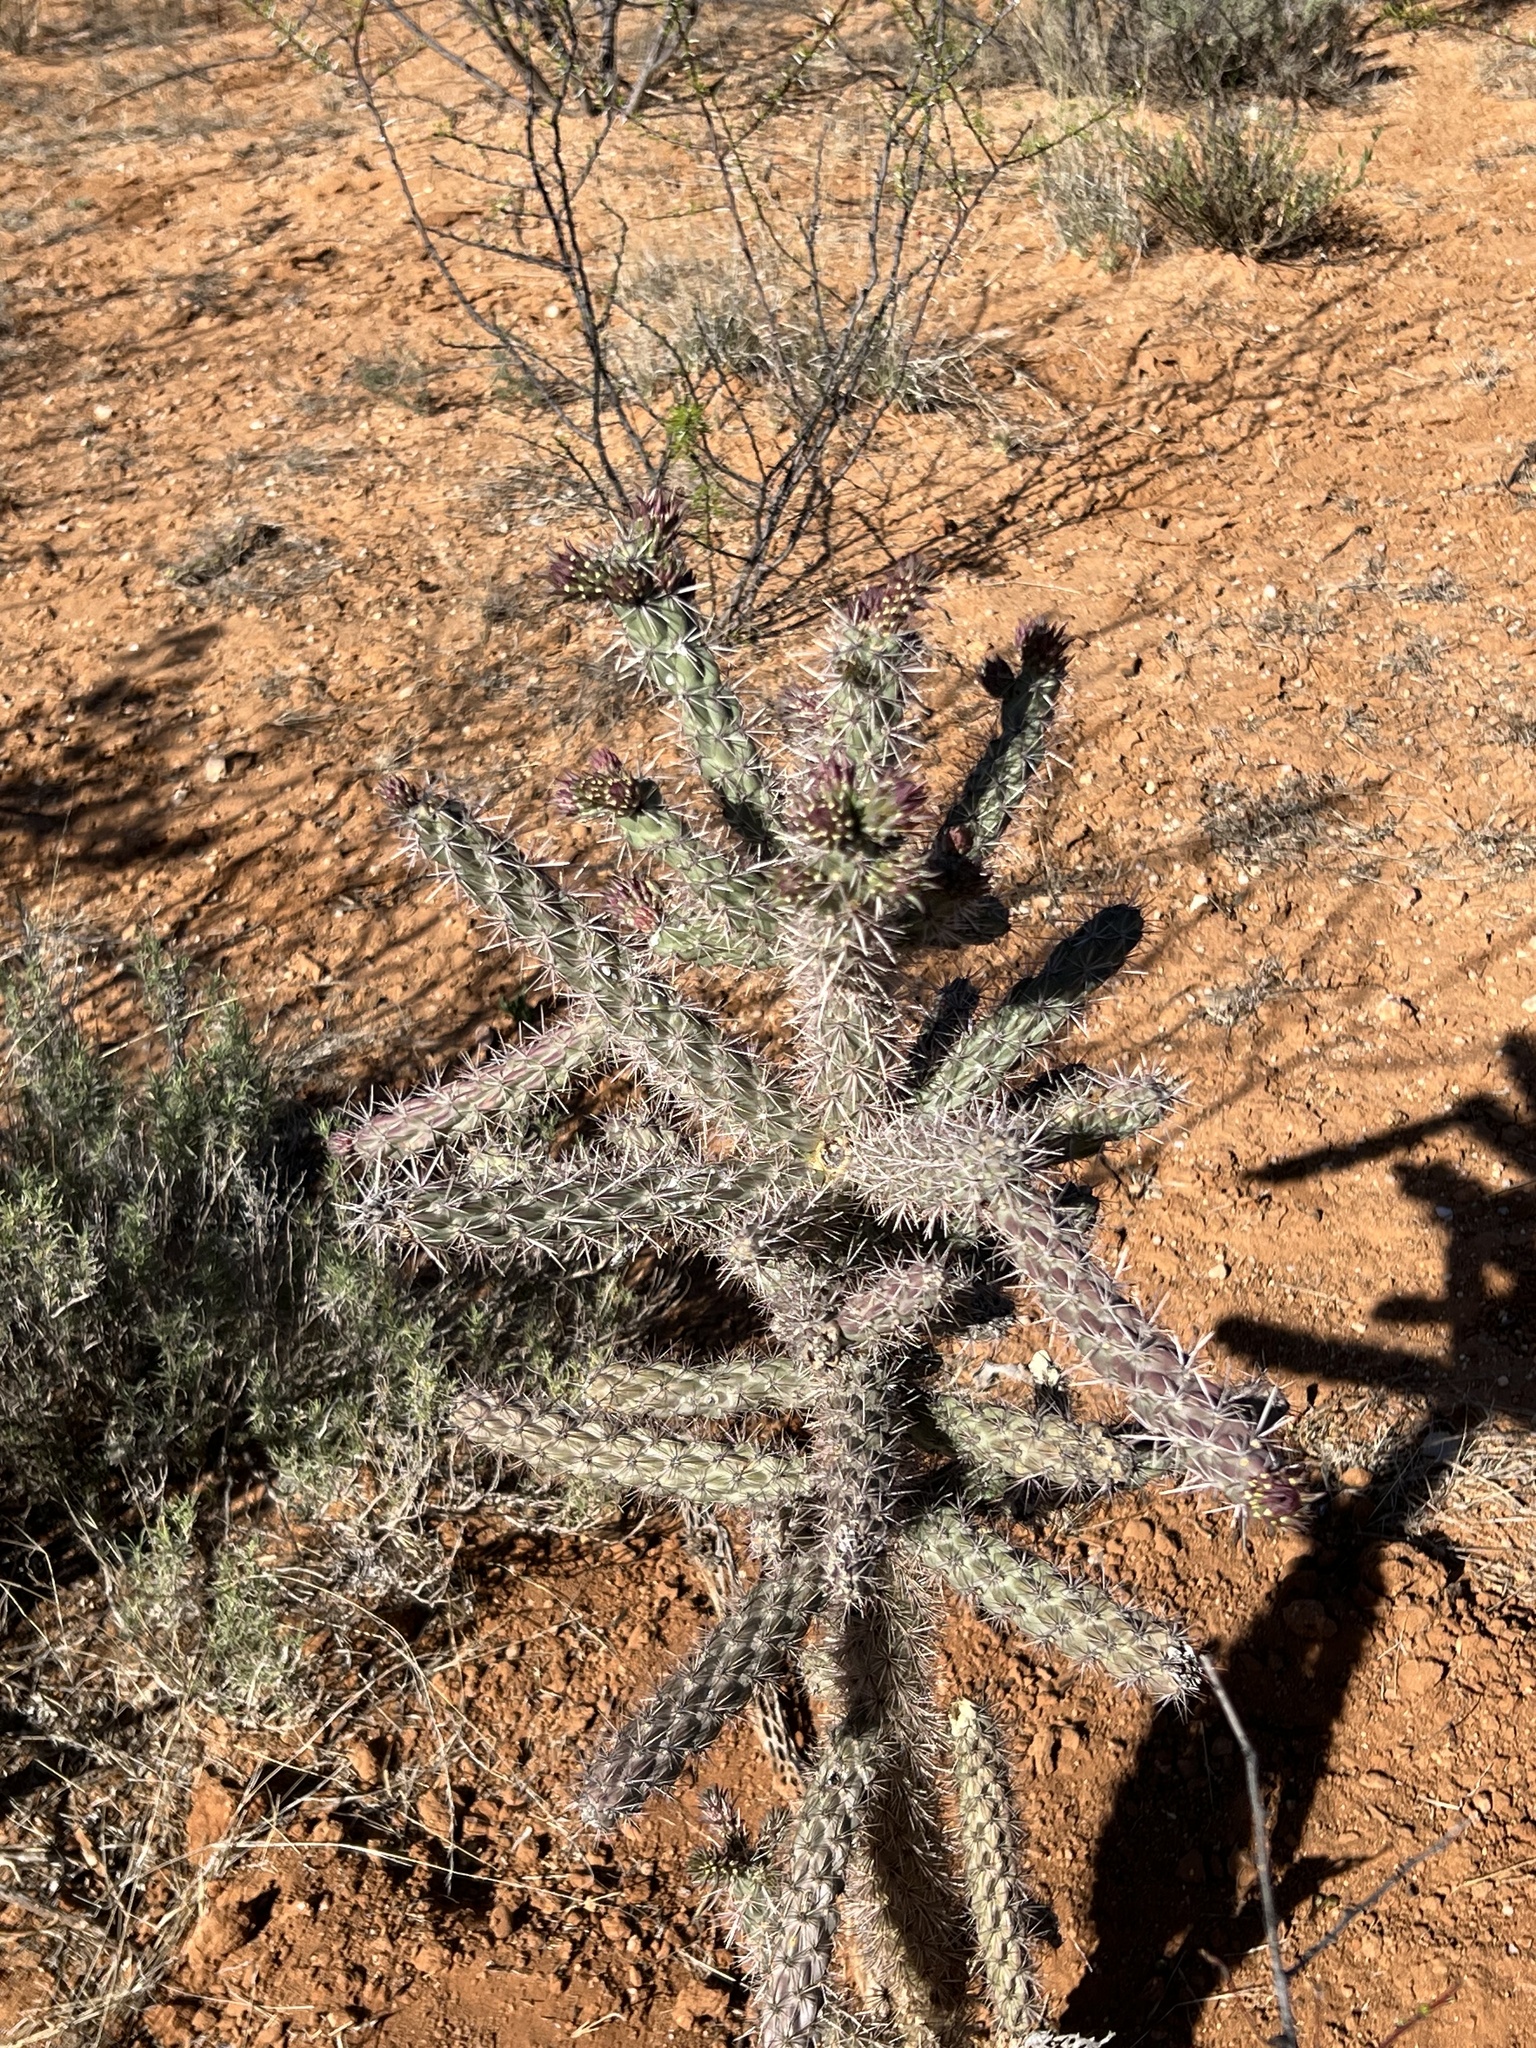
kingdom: Plantae
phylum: Tracheophyta
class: Magnoliopsida
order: Caryophyllales
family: Cactaceae
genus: Cylindropuntia
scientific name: Cylindropuntia imbricata
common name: Candelabrum cactus
